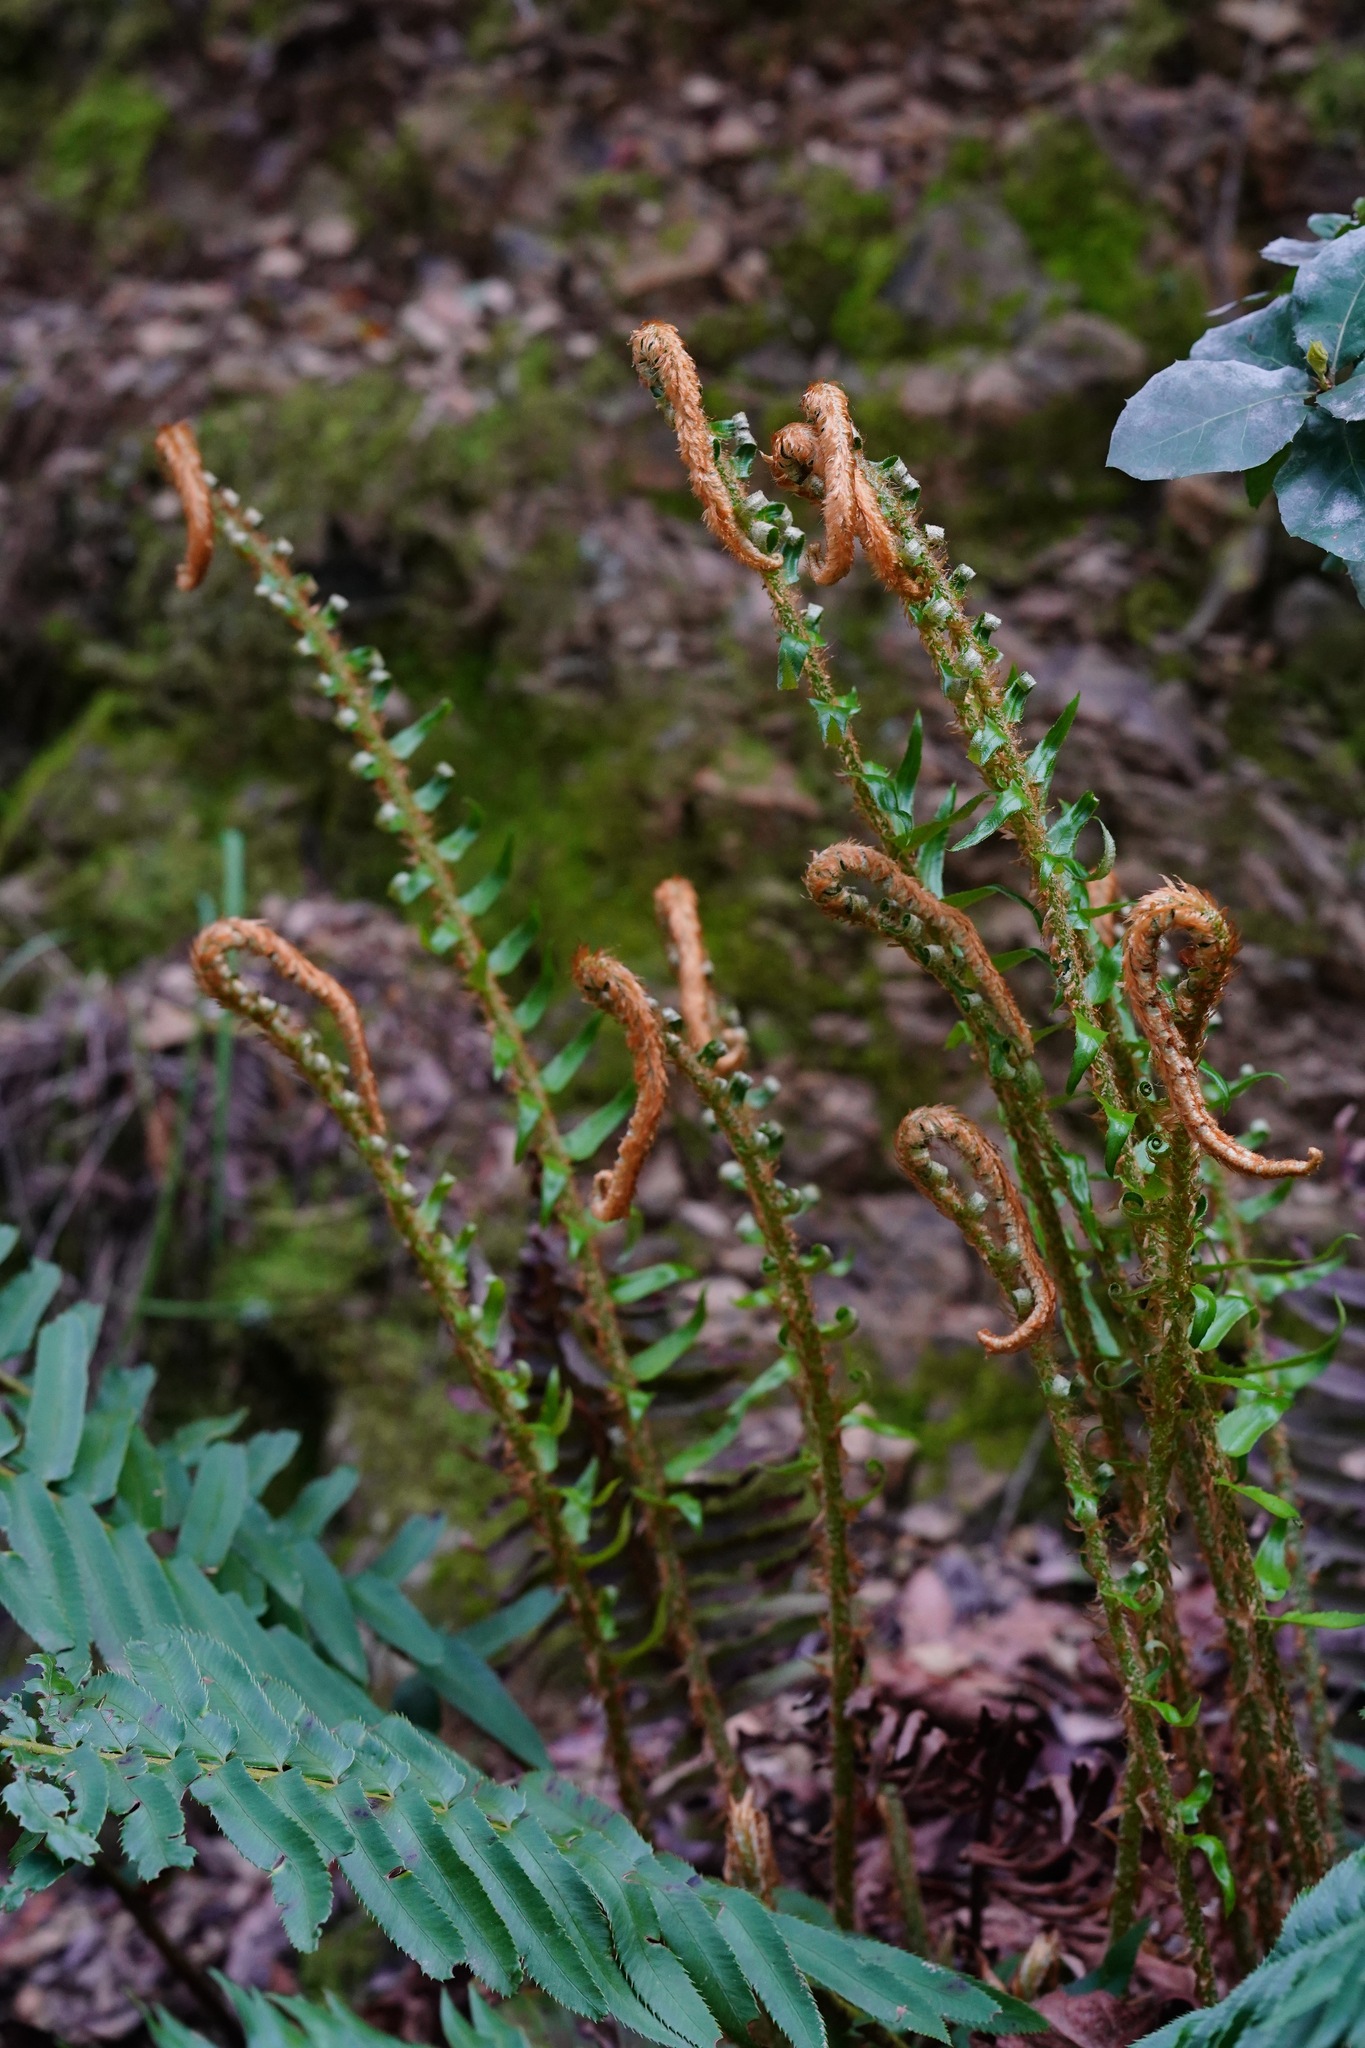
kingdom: Plantae
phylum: Tracheophyta
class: Polypodiopsida
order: Polypodiales
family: Dryopteridaceae
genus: Polystichum
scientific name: Polystichum munitum
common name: Western sword-fern
